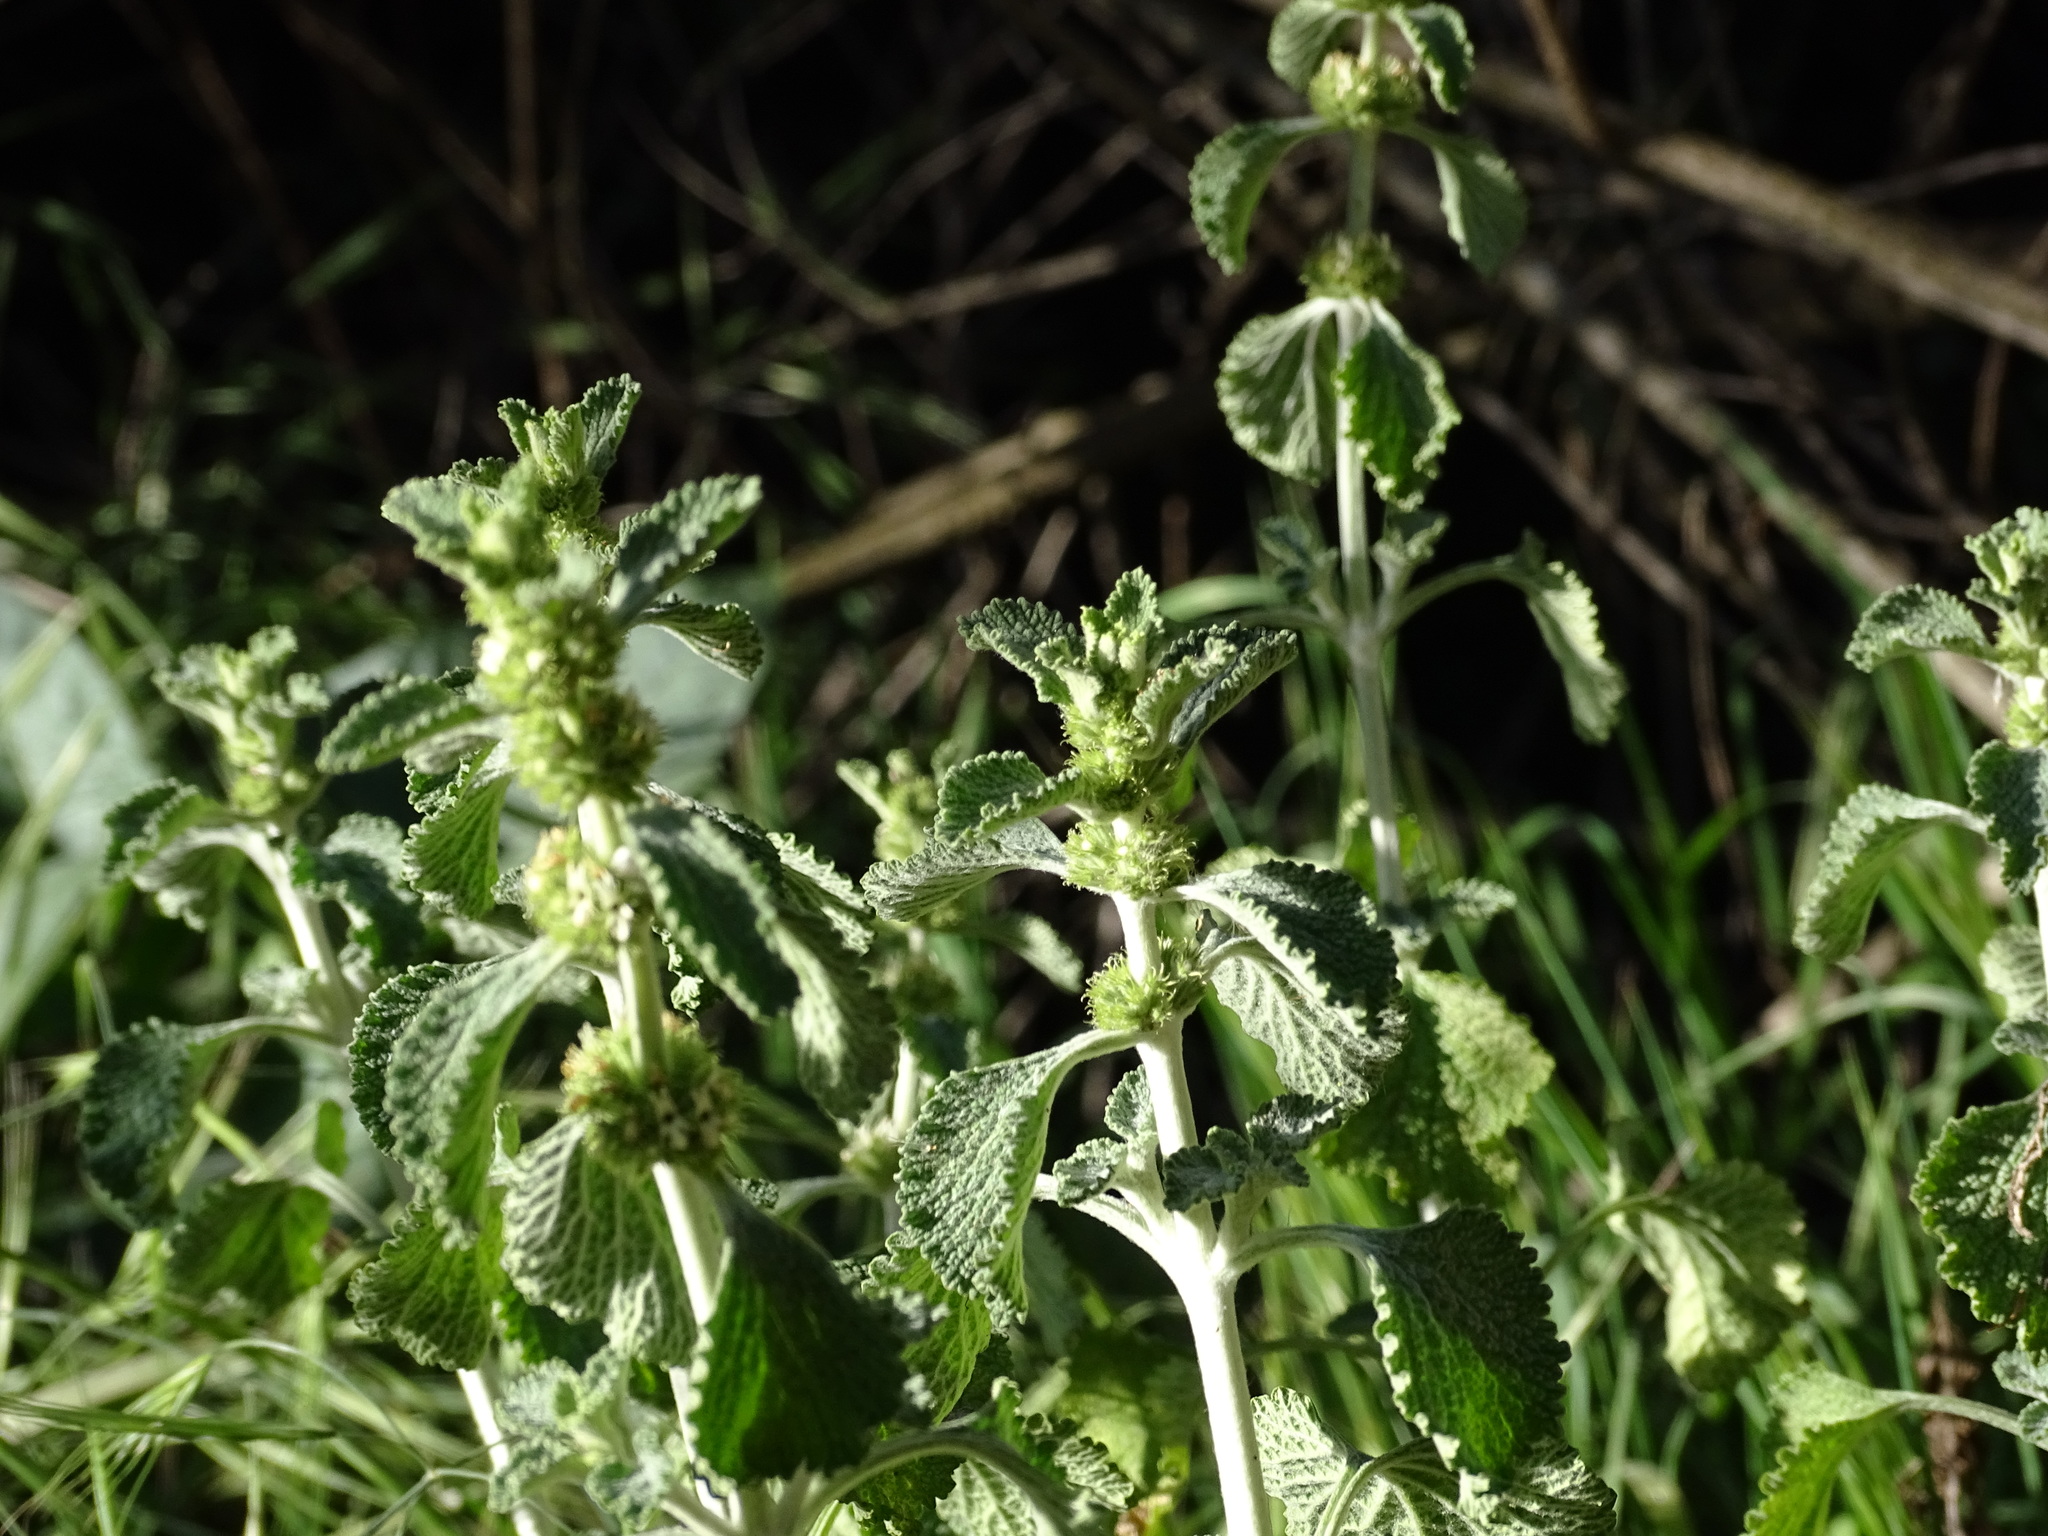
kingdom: Plantae
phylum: Tracheophyta
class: Magnoliopsida
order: Lamiales
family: Lamiaceae
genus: Marrubium
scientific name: Marrubium vulgare
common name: Horehound
